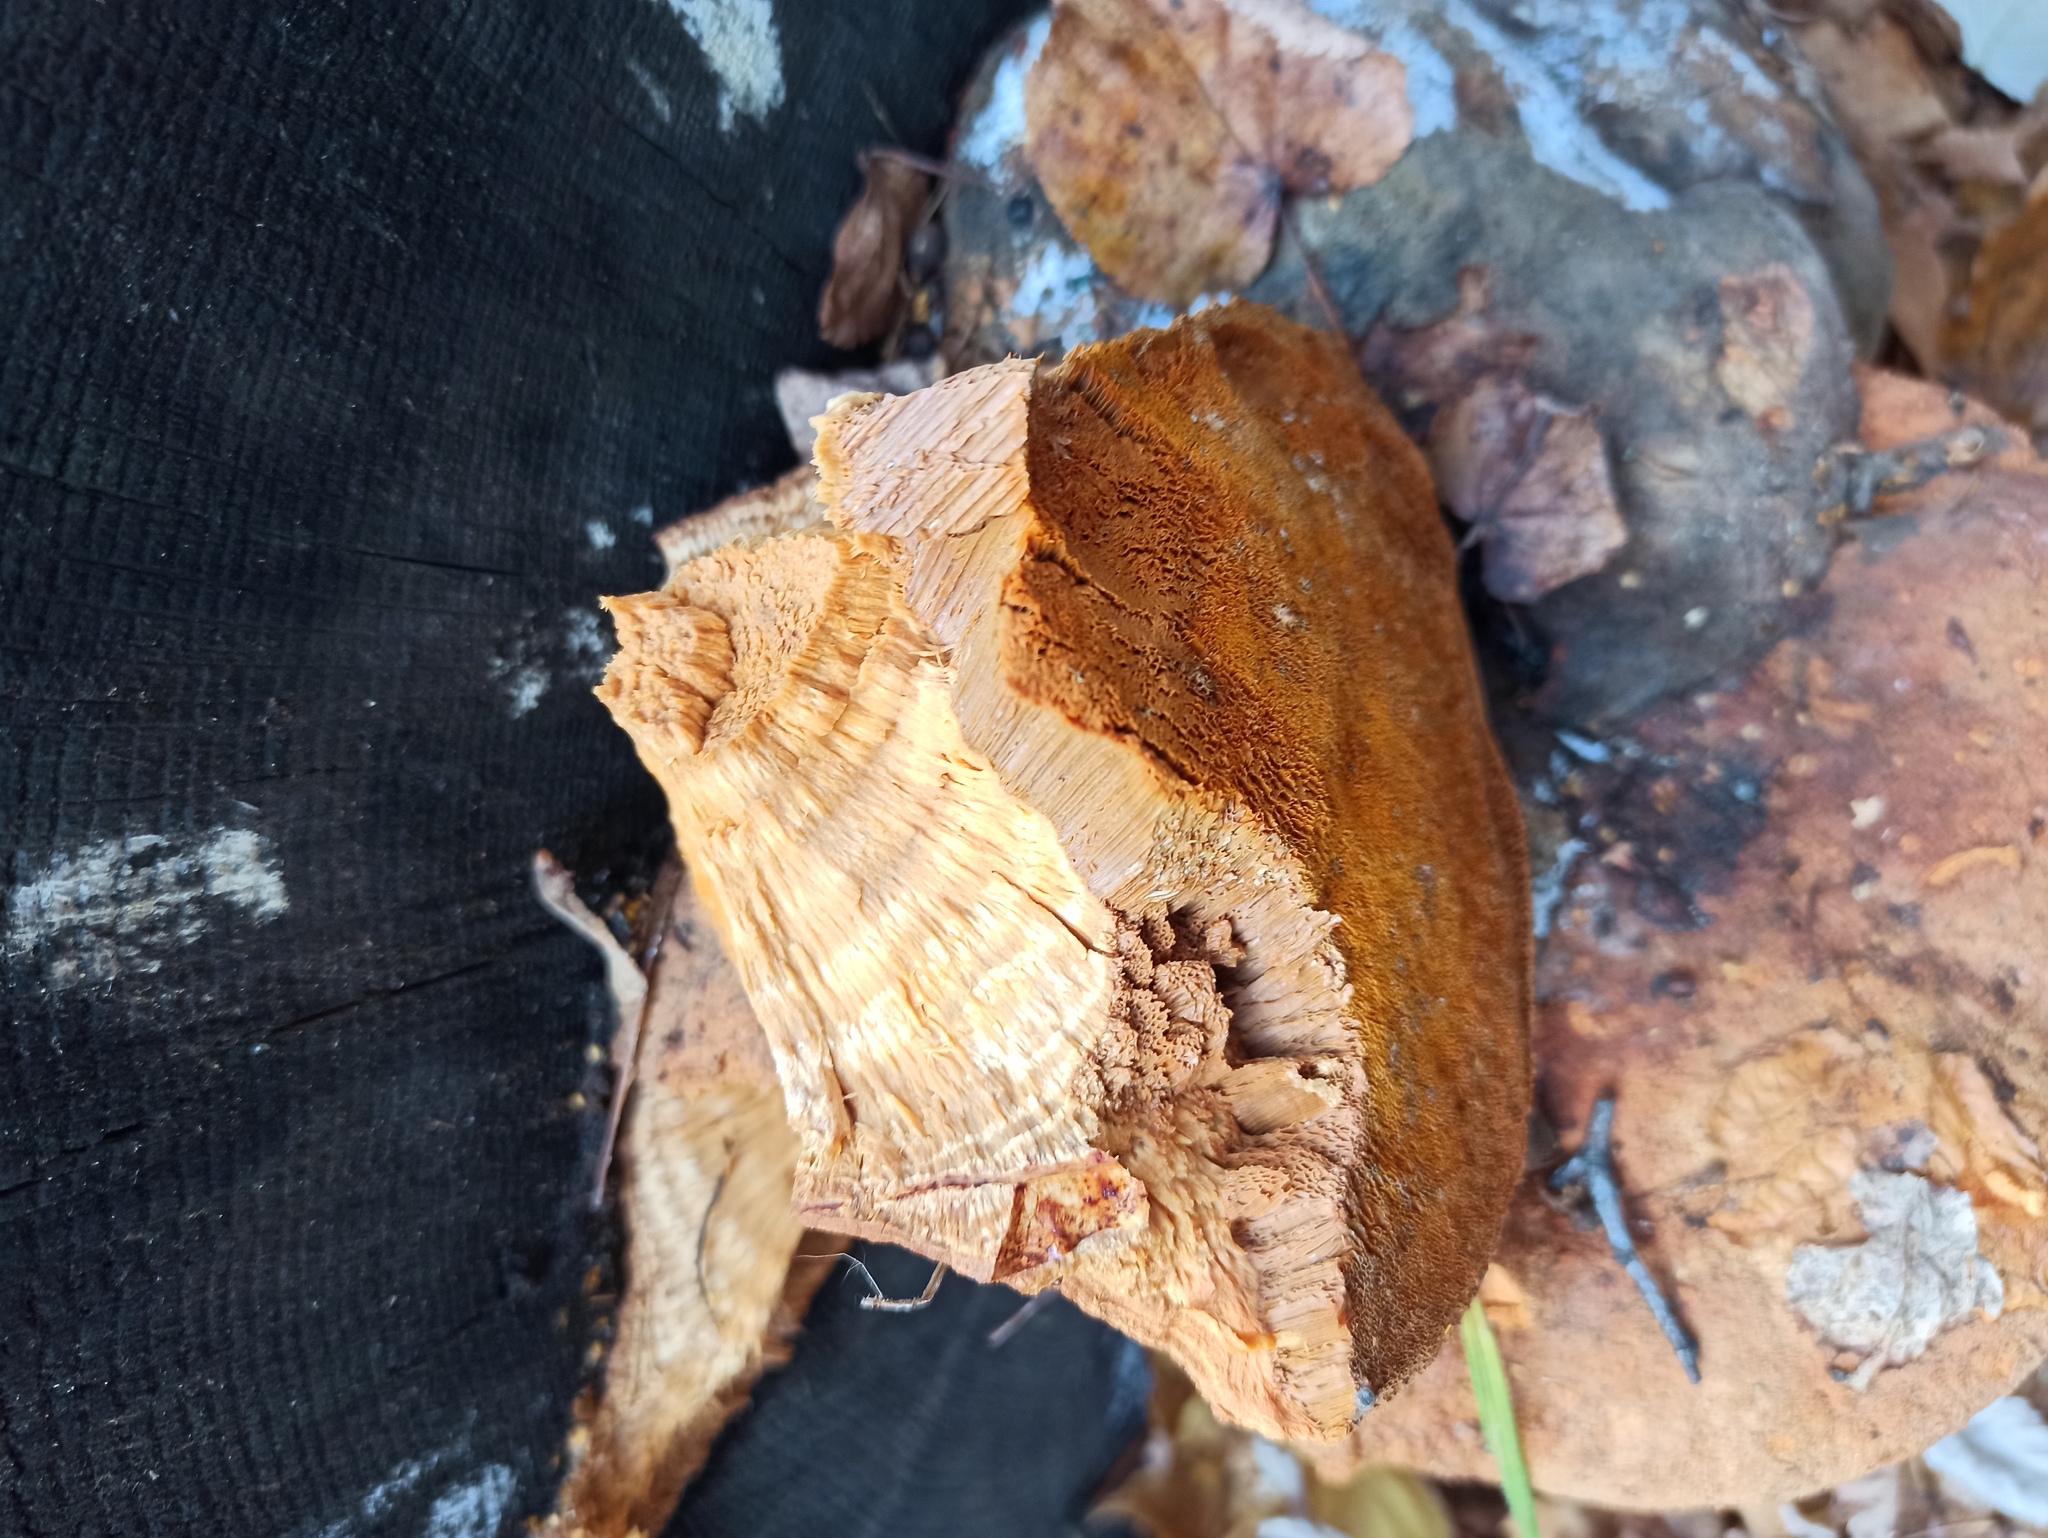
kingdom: Fungi
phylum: Basidiomycota
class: Agaricomycetes
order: Gloeophyllales
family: Gloeophyllaceae
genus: Gloeophyllum
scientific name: Gloeophyllum odoratum
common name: Anise mazegill
